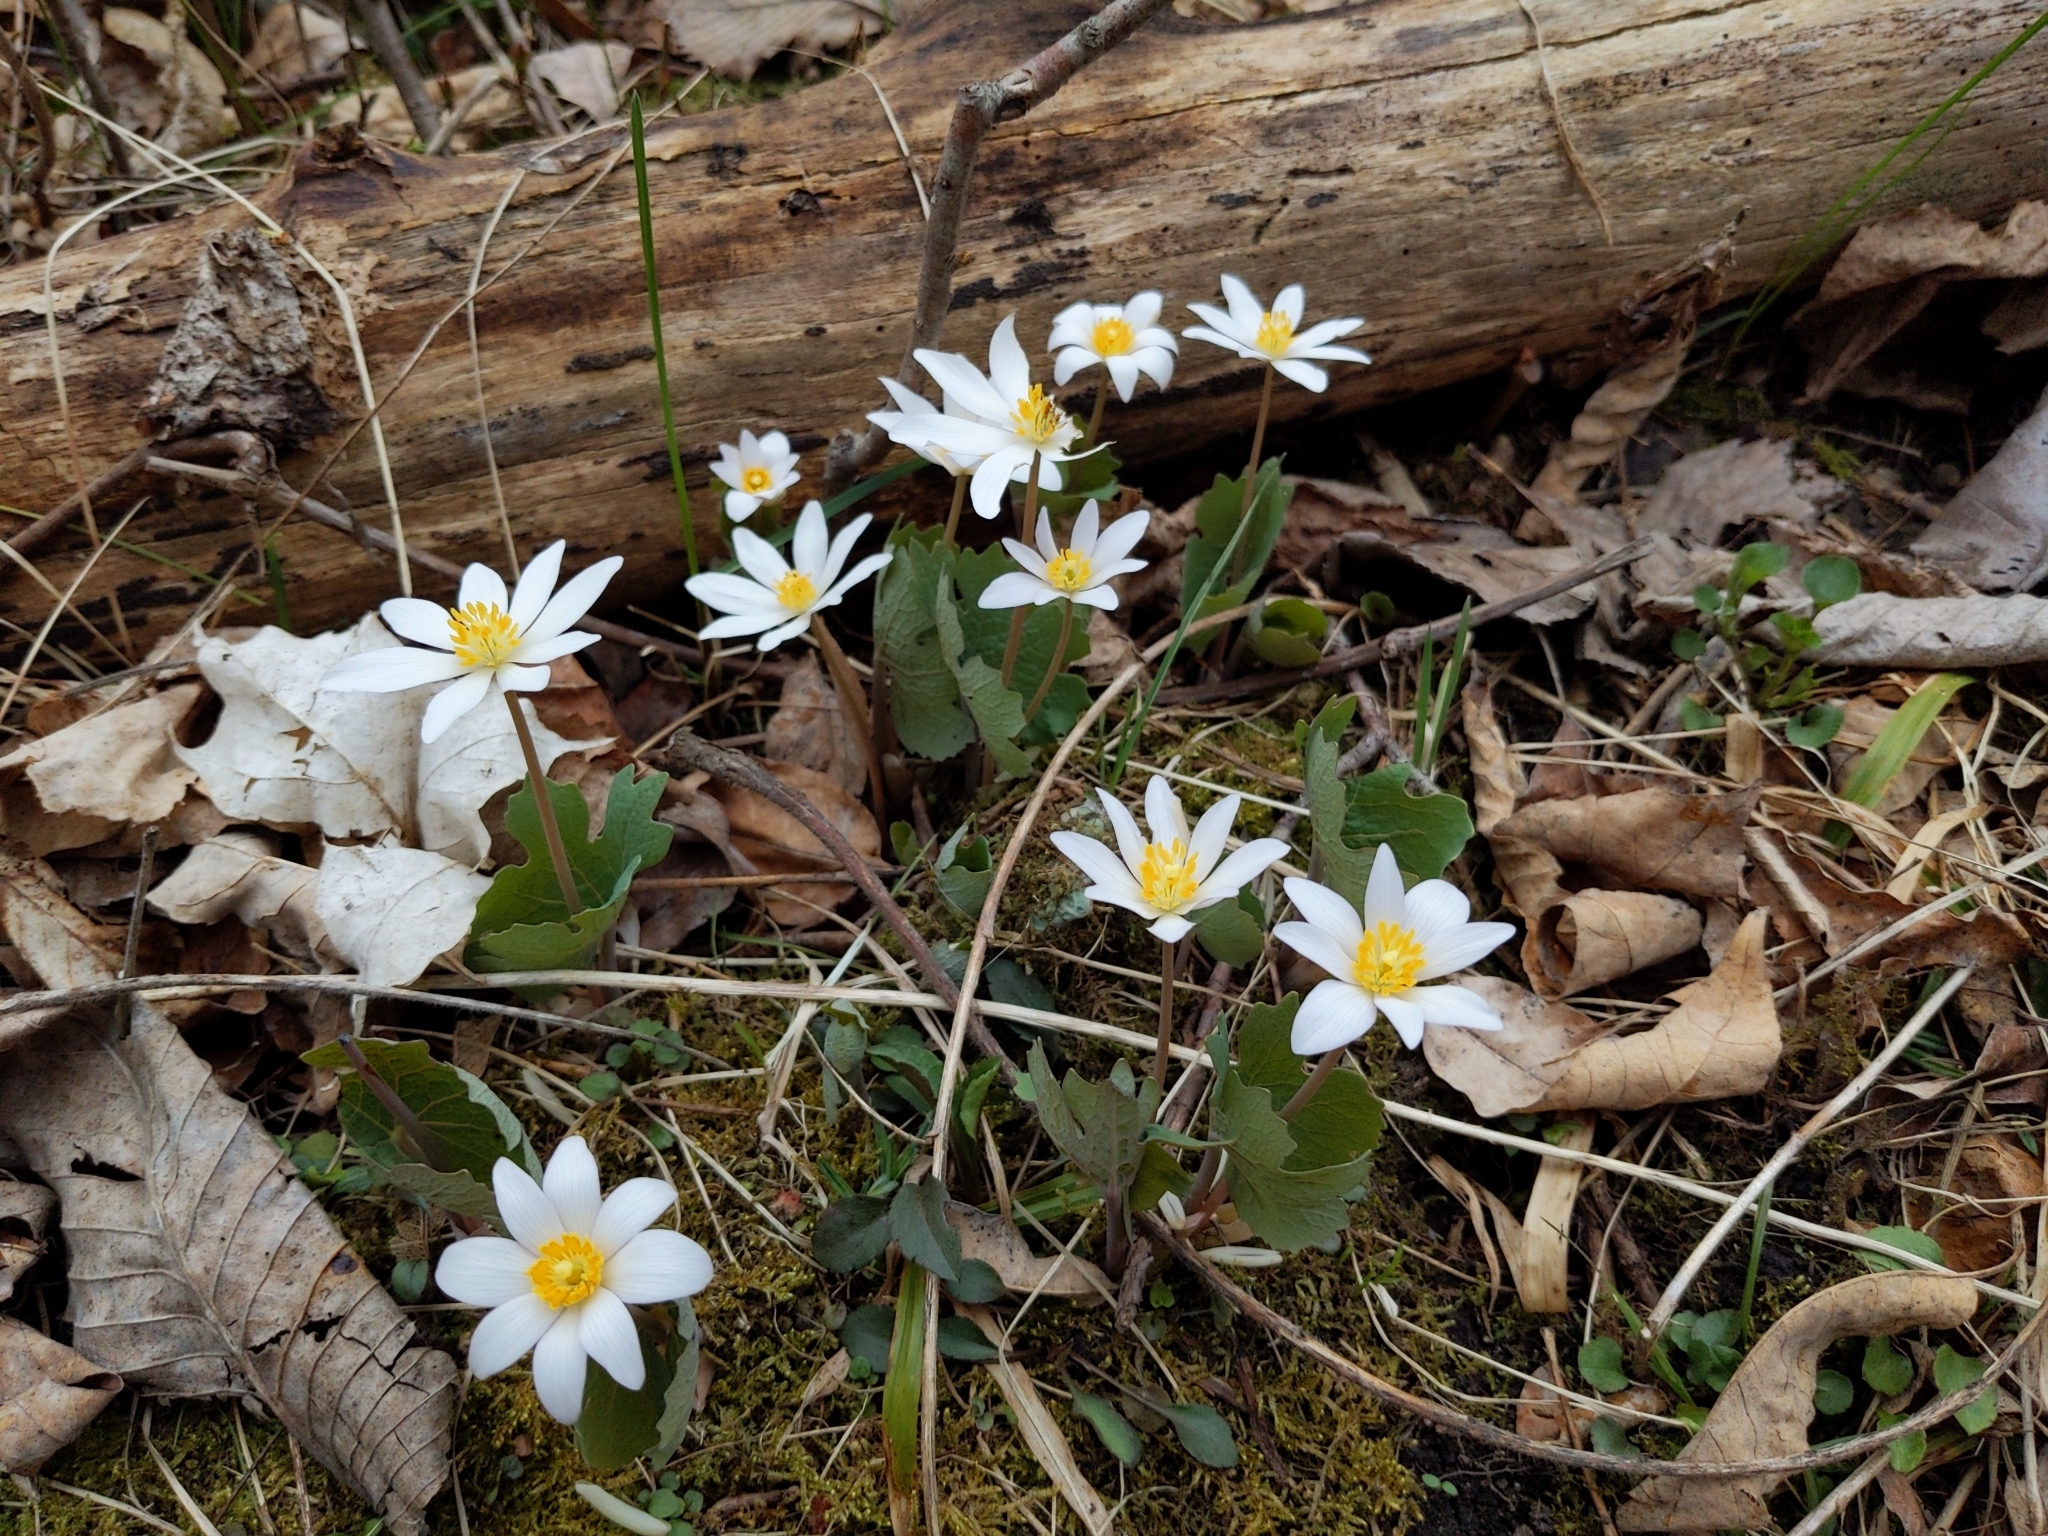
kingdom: Plantae
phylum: Tracheophyta
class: Magnoliopsida
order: Ranunculales
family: Papaveraceae
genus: Sanguinaria
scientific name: Sanguinaria canadensis
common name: Bloodroot
